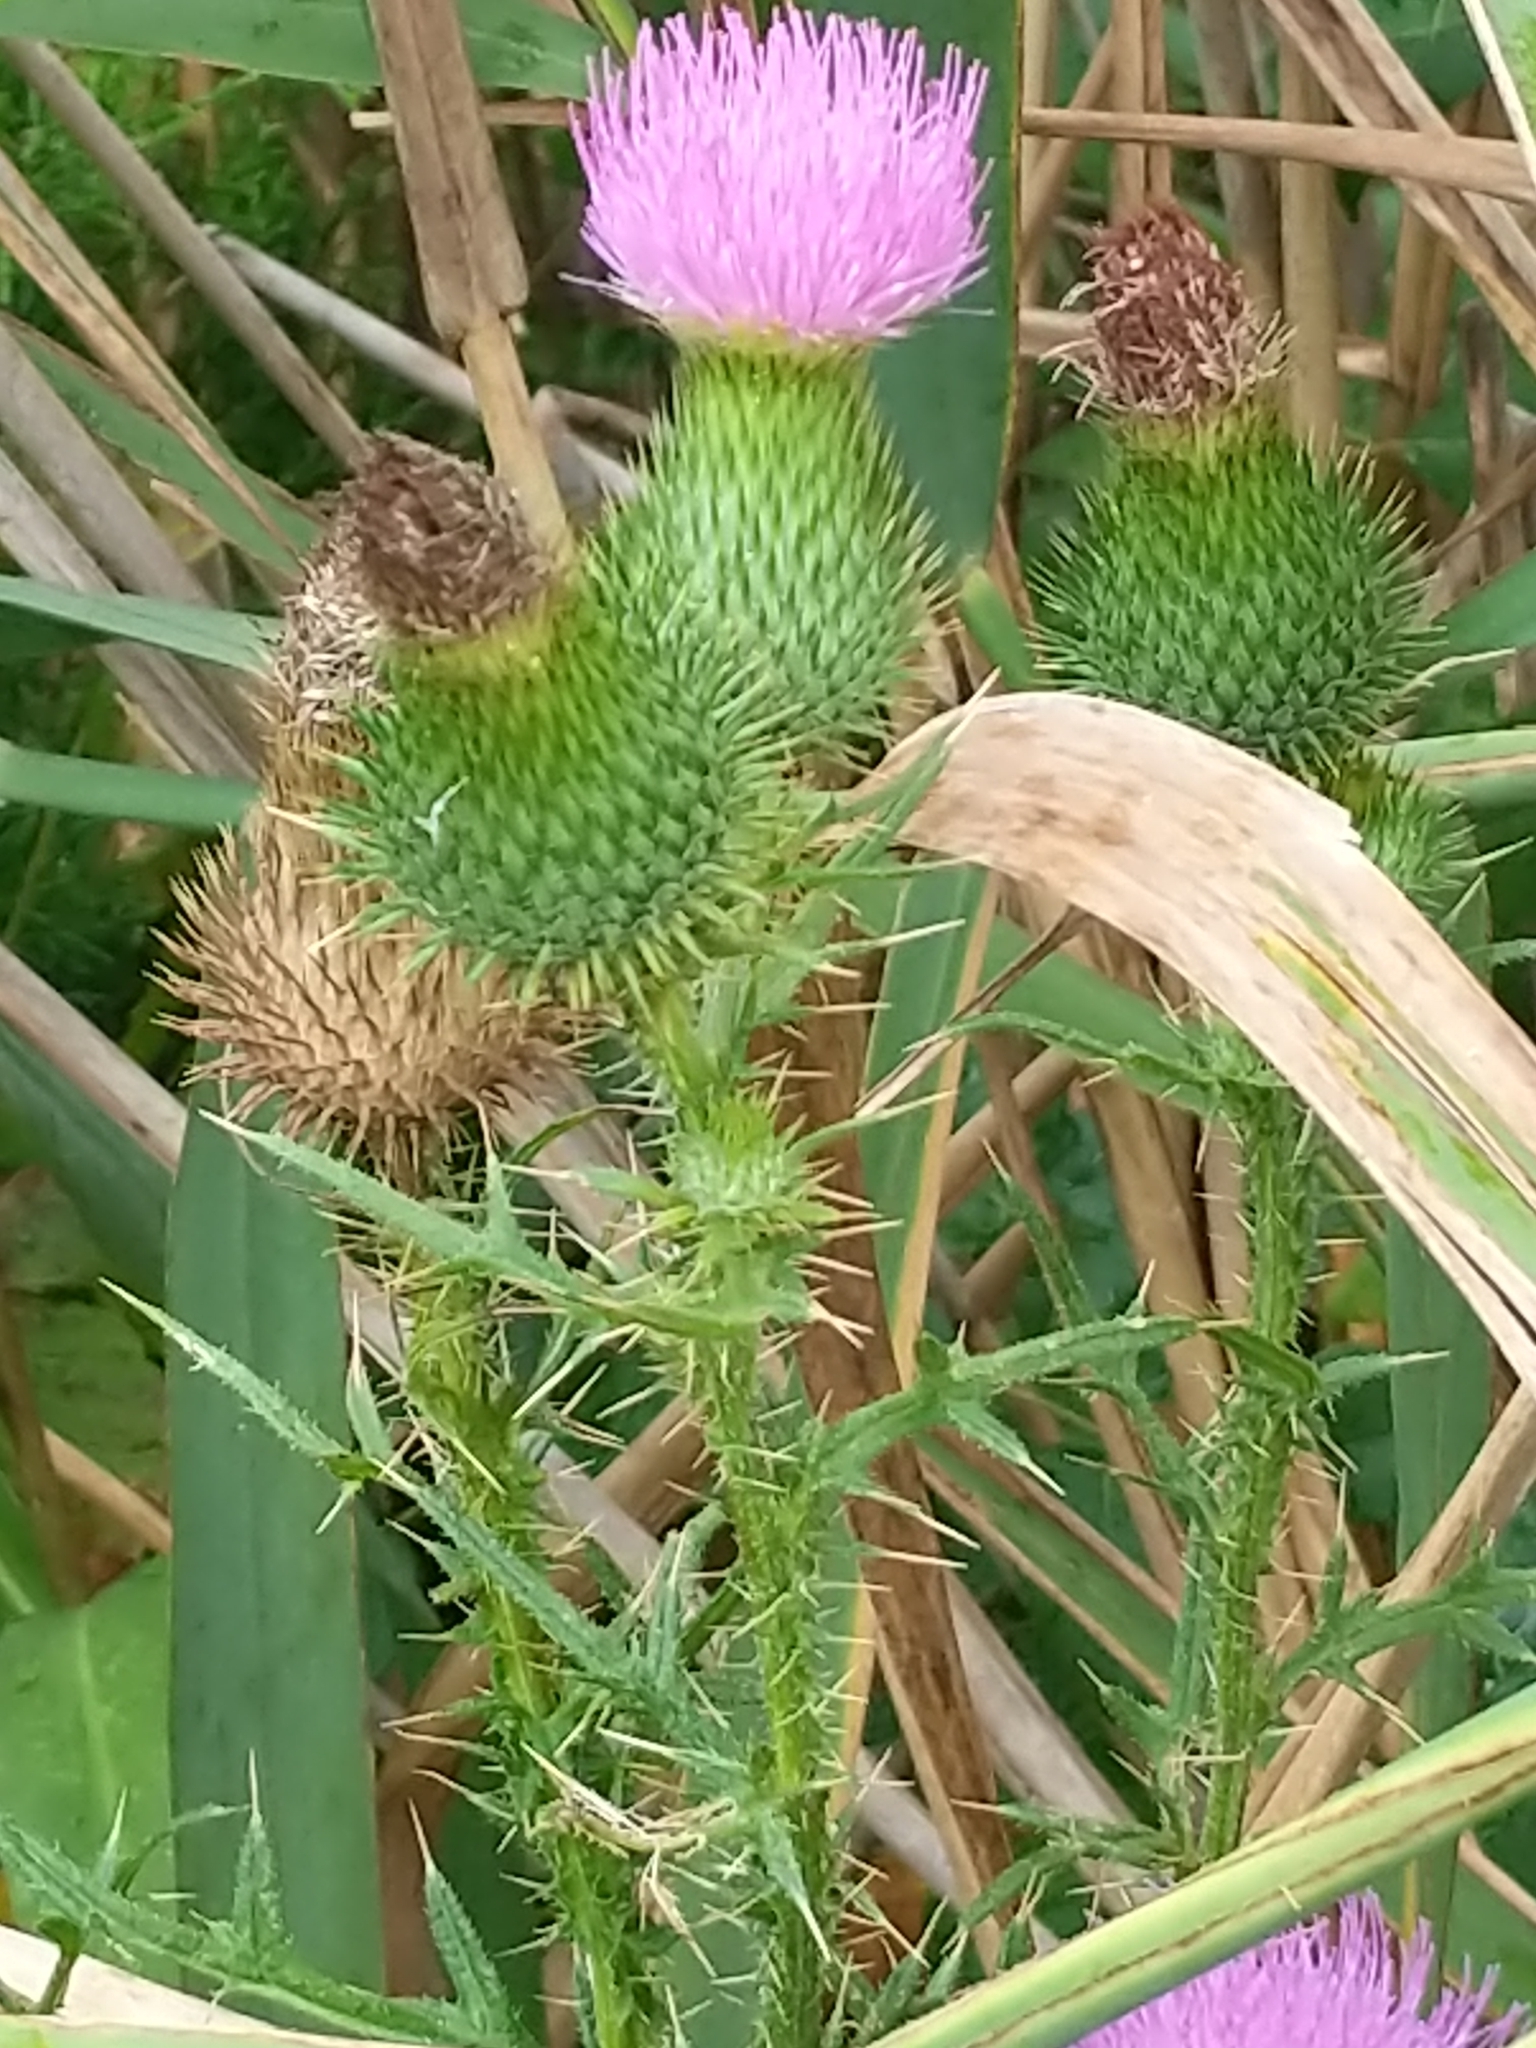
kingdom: Plantae
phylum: Tracheophyta
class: Magnoliopsida
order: Asterales
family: Asteraceae
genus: Cirsium
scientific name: Cirsium vulgare
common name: Bull thistle
